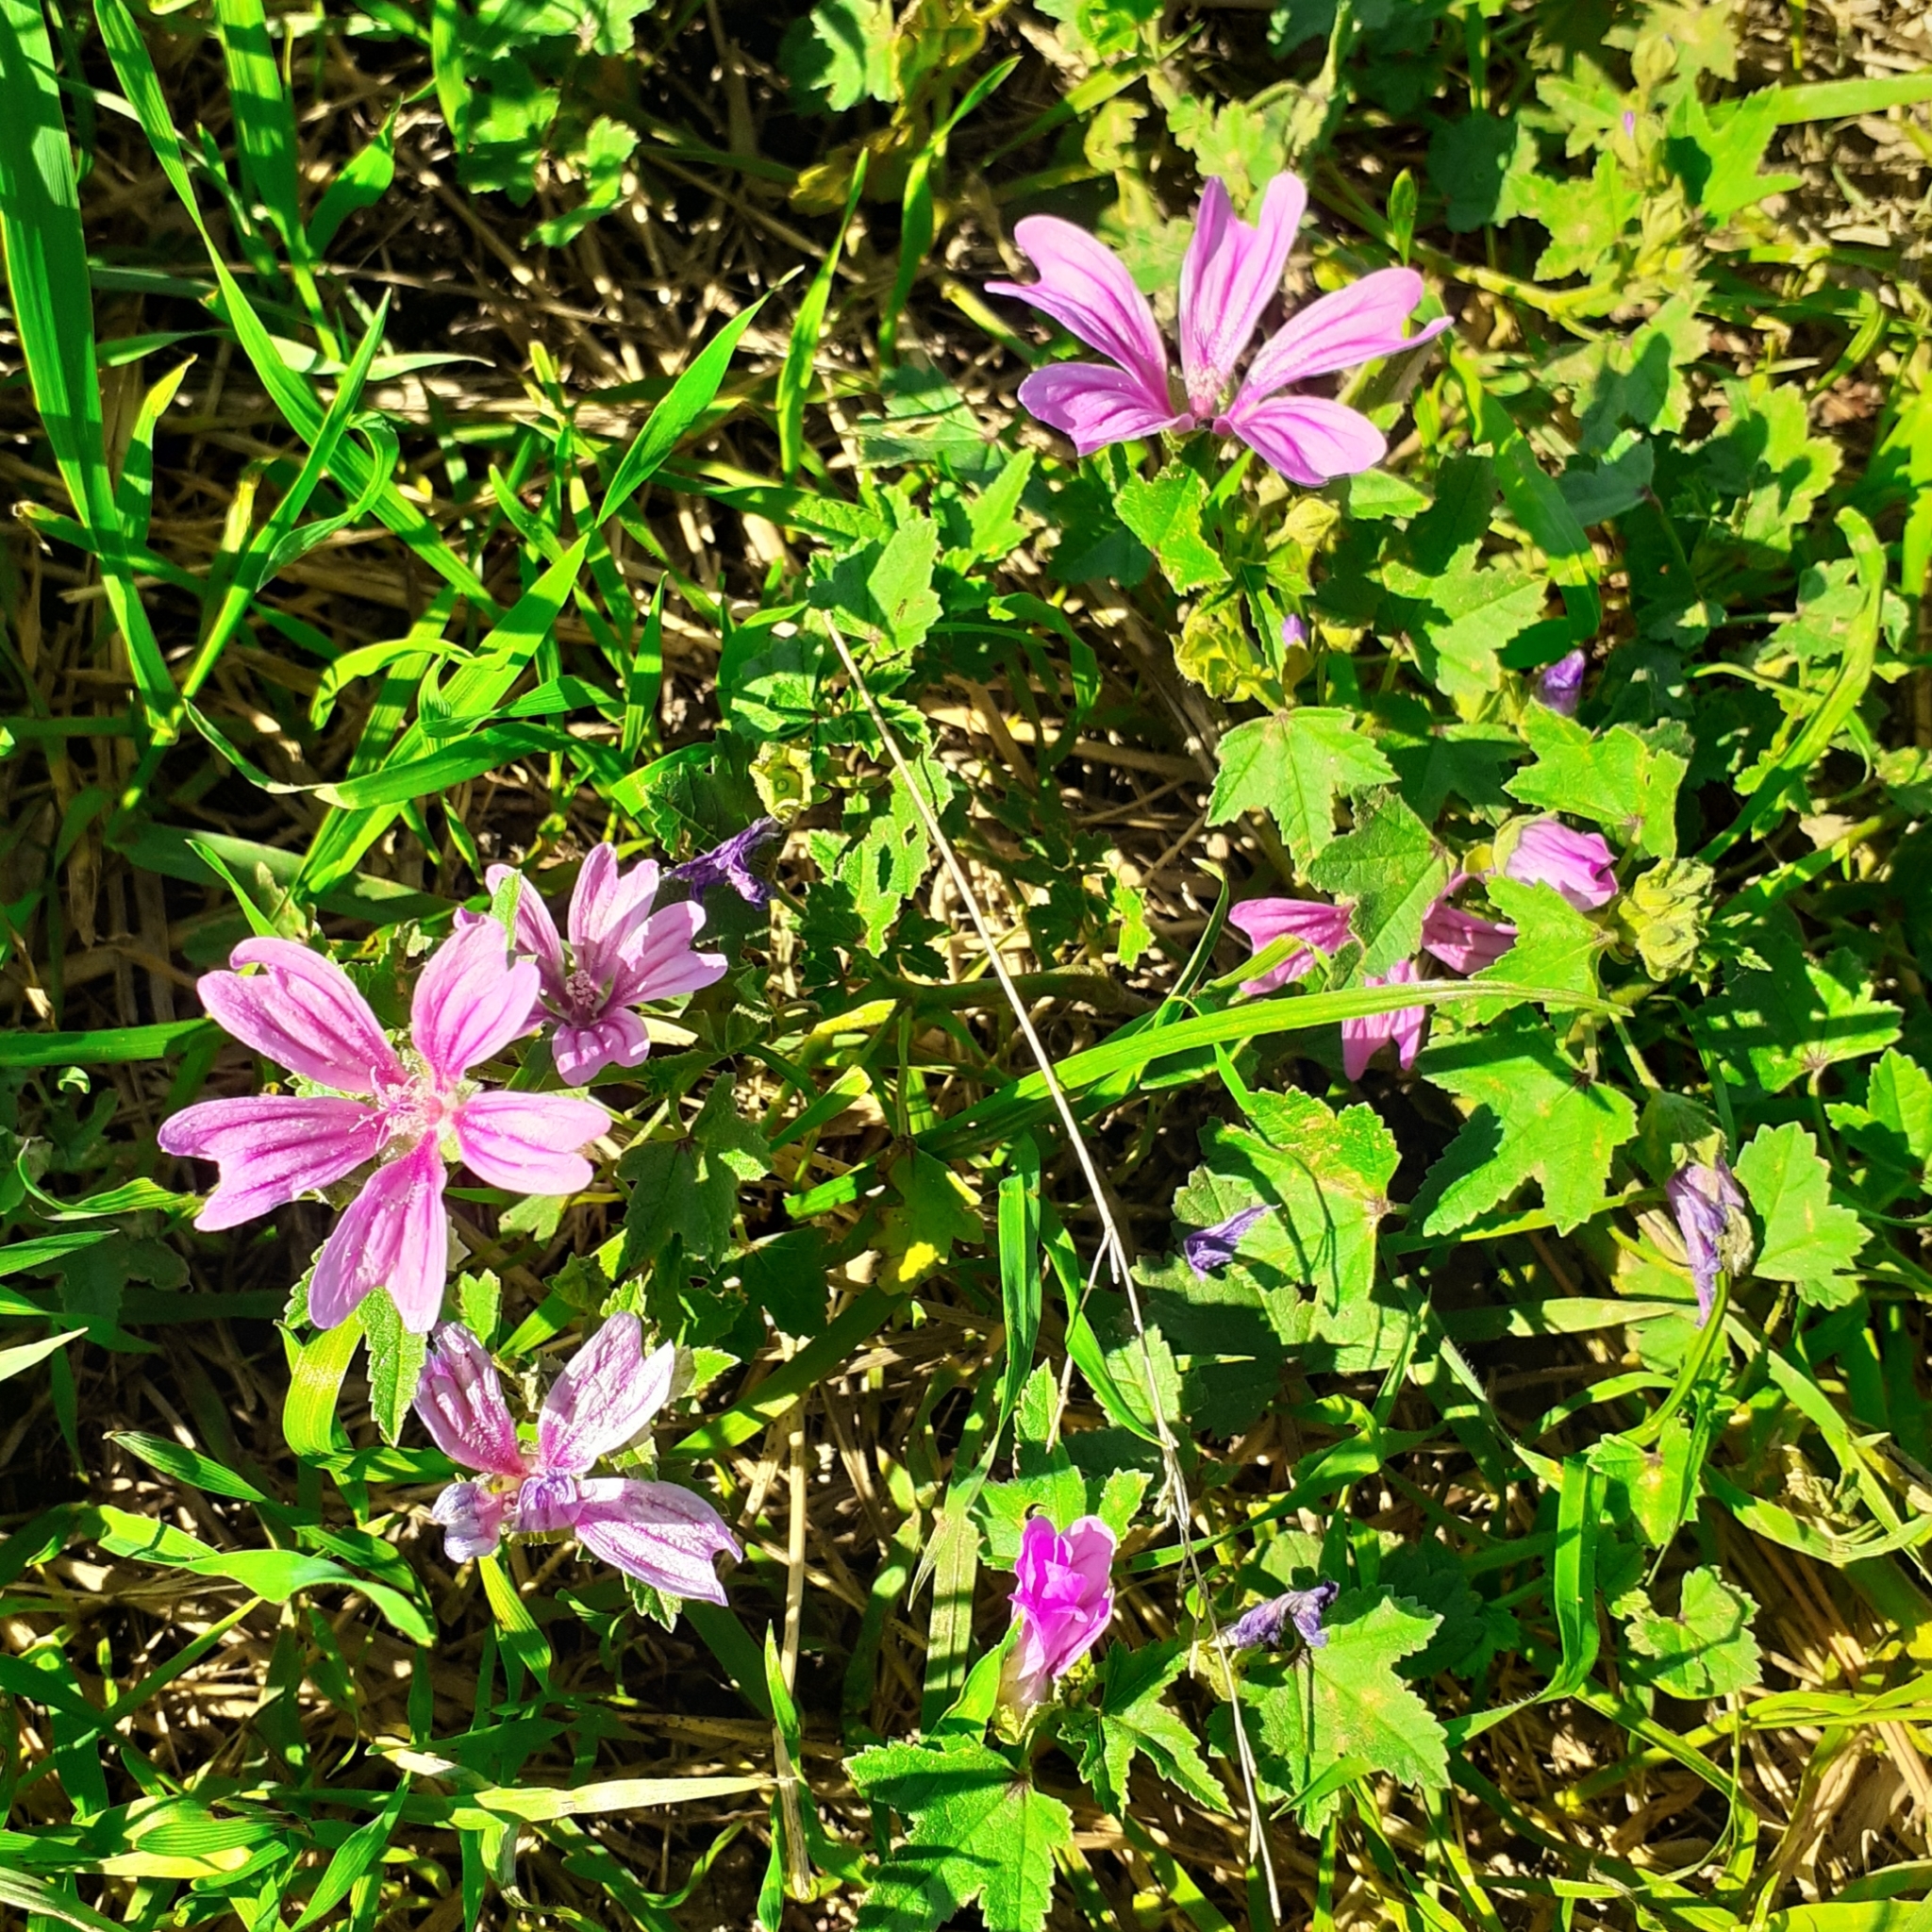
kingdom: Plantae
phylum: Tracheophyta
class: Magnoliopsida
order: Malvales
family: Malvaceae
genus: Malva
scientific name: Malva sylvestris
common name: Common mallow
